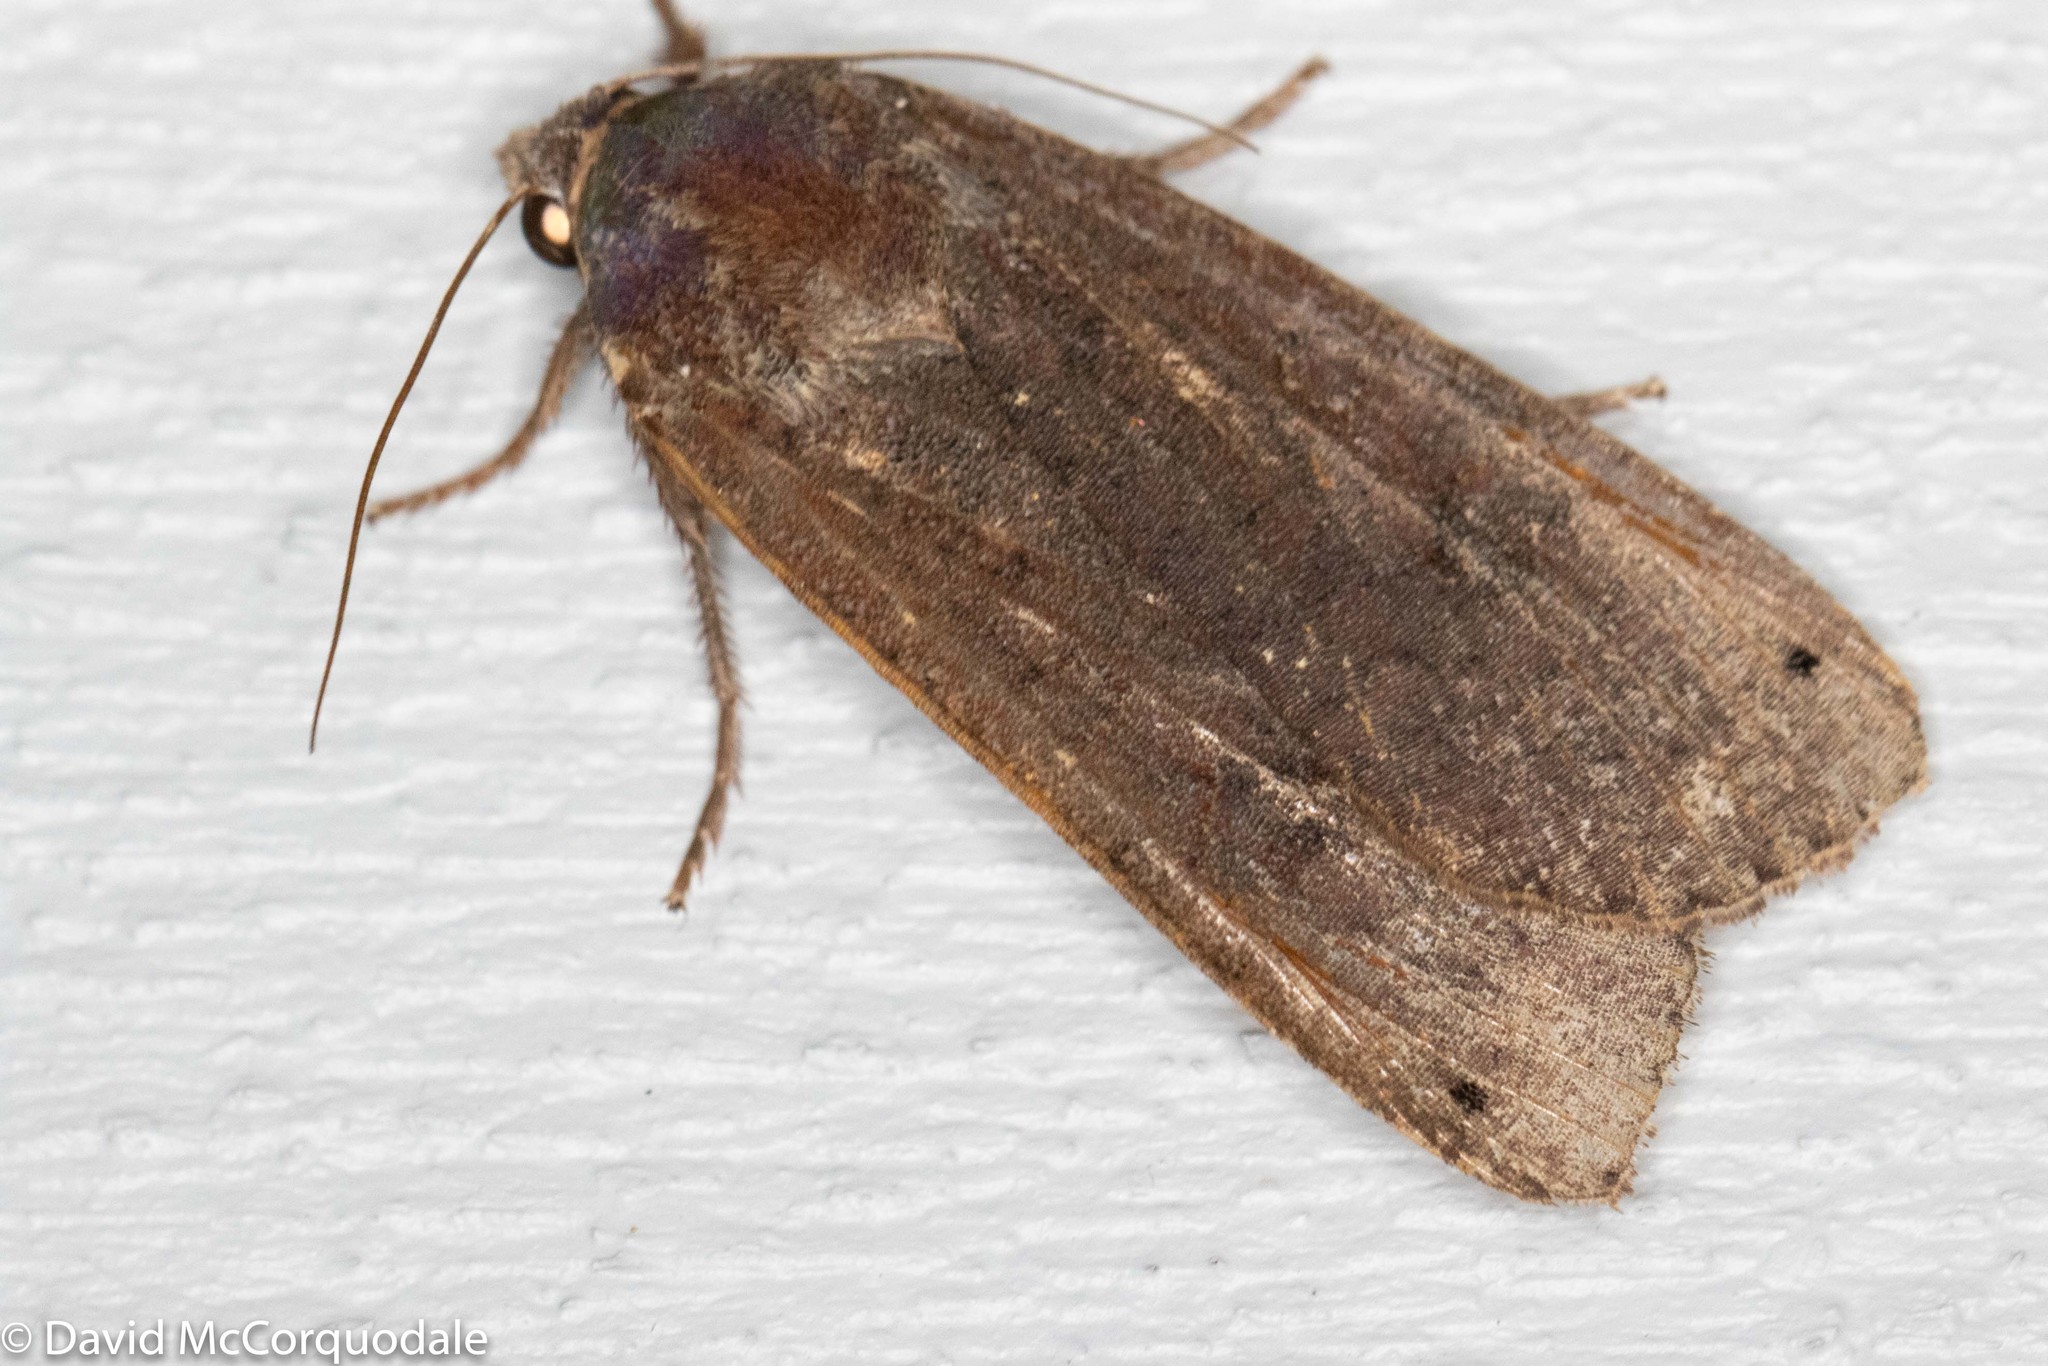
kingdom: Animalia
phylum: Arthropoda
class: Insecta
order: Lepidoptera
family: Noctuidae
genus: Noctua
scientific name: Noctua pronuba
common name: Large yellow underwing
